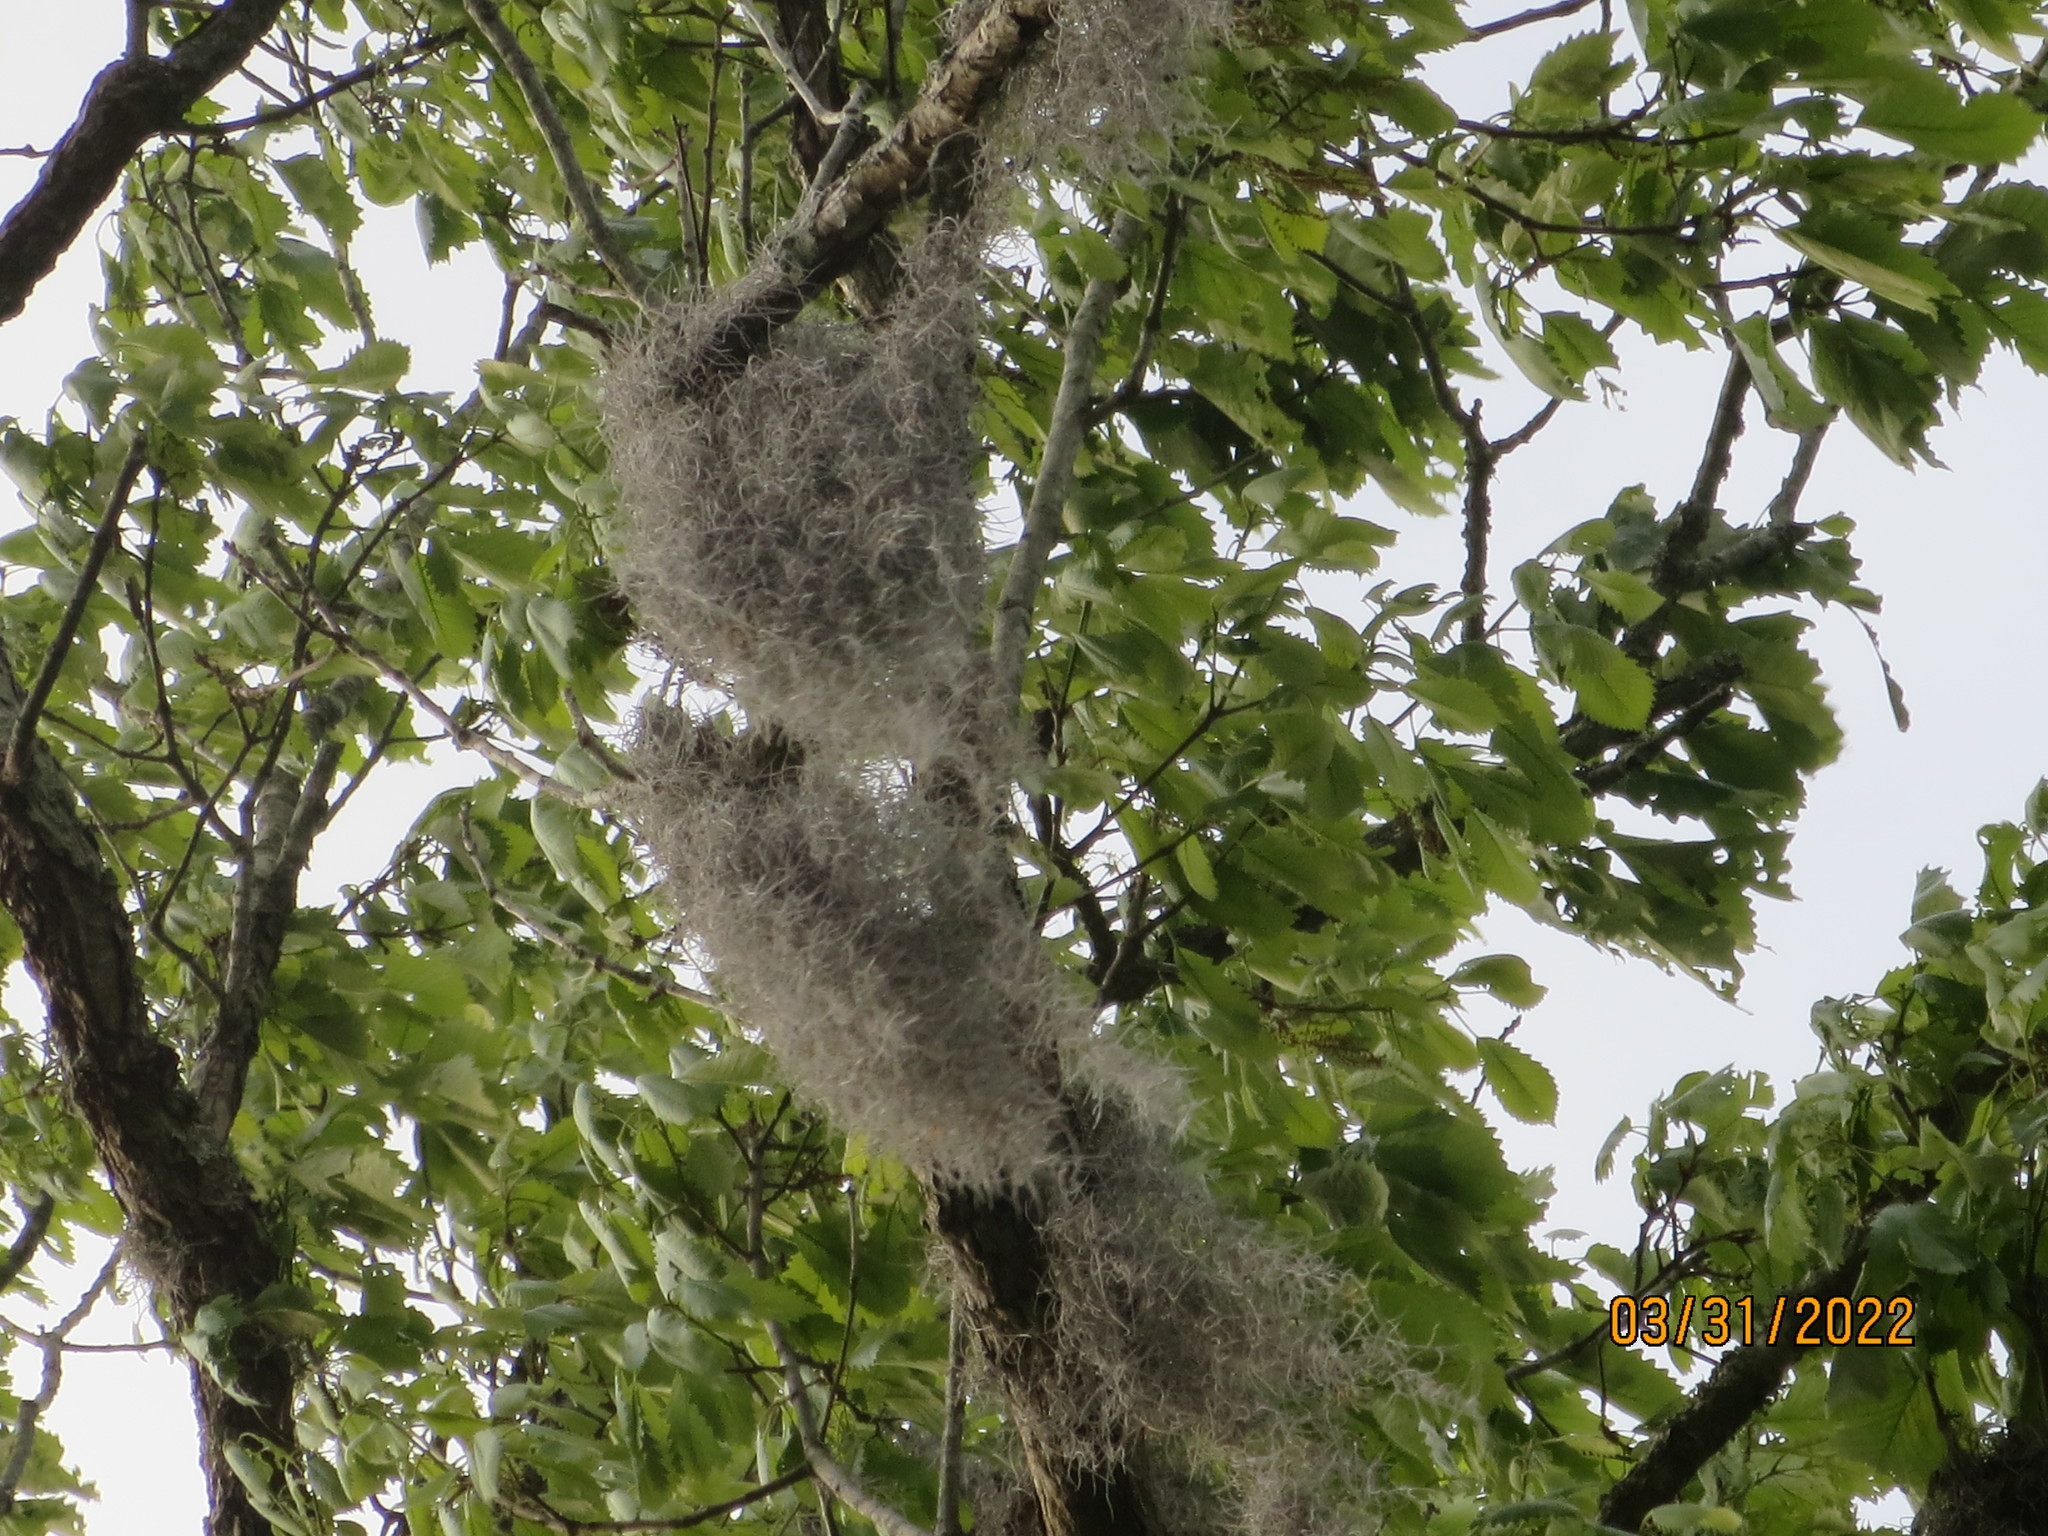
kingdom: Plantae
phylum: Tracheophyta
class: Liliopsida
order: Poales
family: Bromeliaceae
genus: Tillandsia
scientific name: Tillandsia usneoides
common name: Spanish moss
